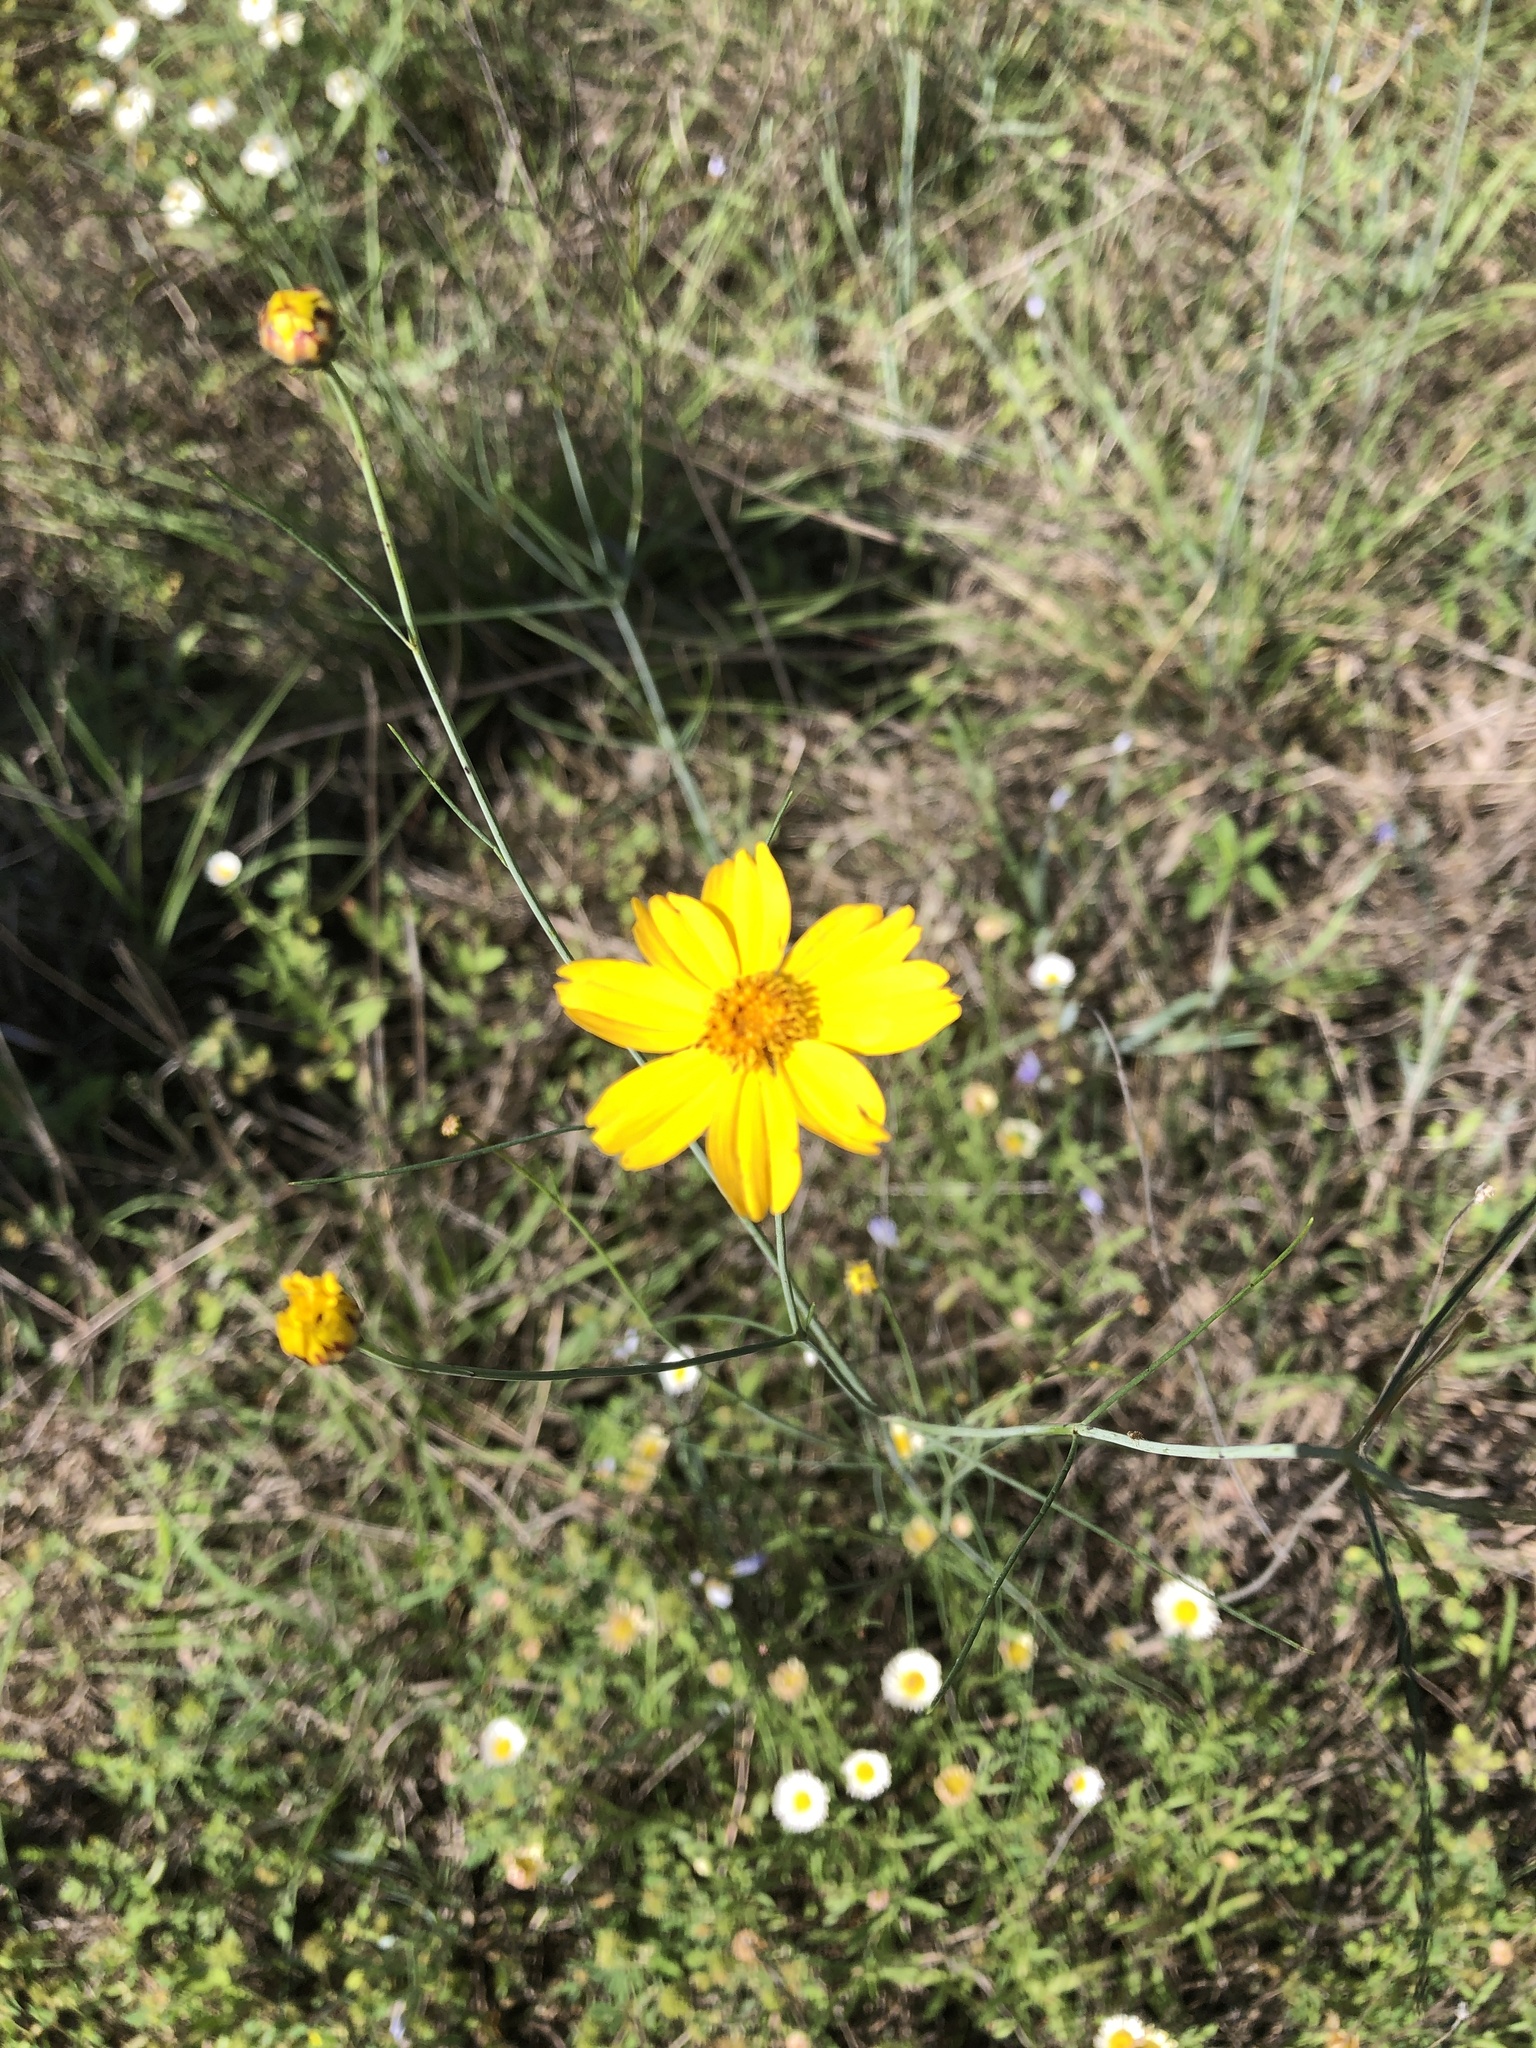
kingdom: Plantae
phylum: Tracheophyta
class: Magnoliopsida
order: Asterales
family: Asteraceae
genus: Thelesperma
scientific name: Thelesperma simplicifolium
